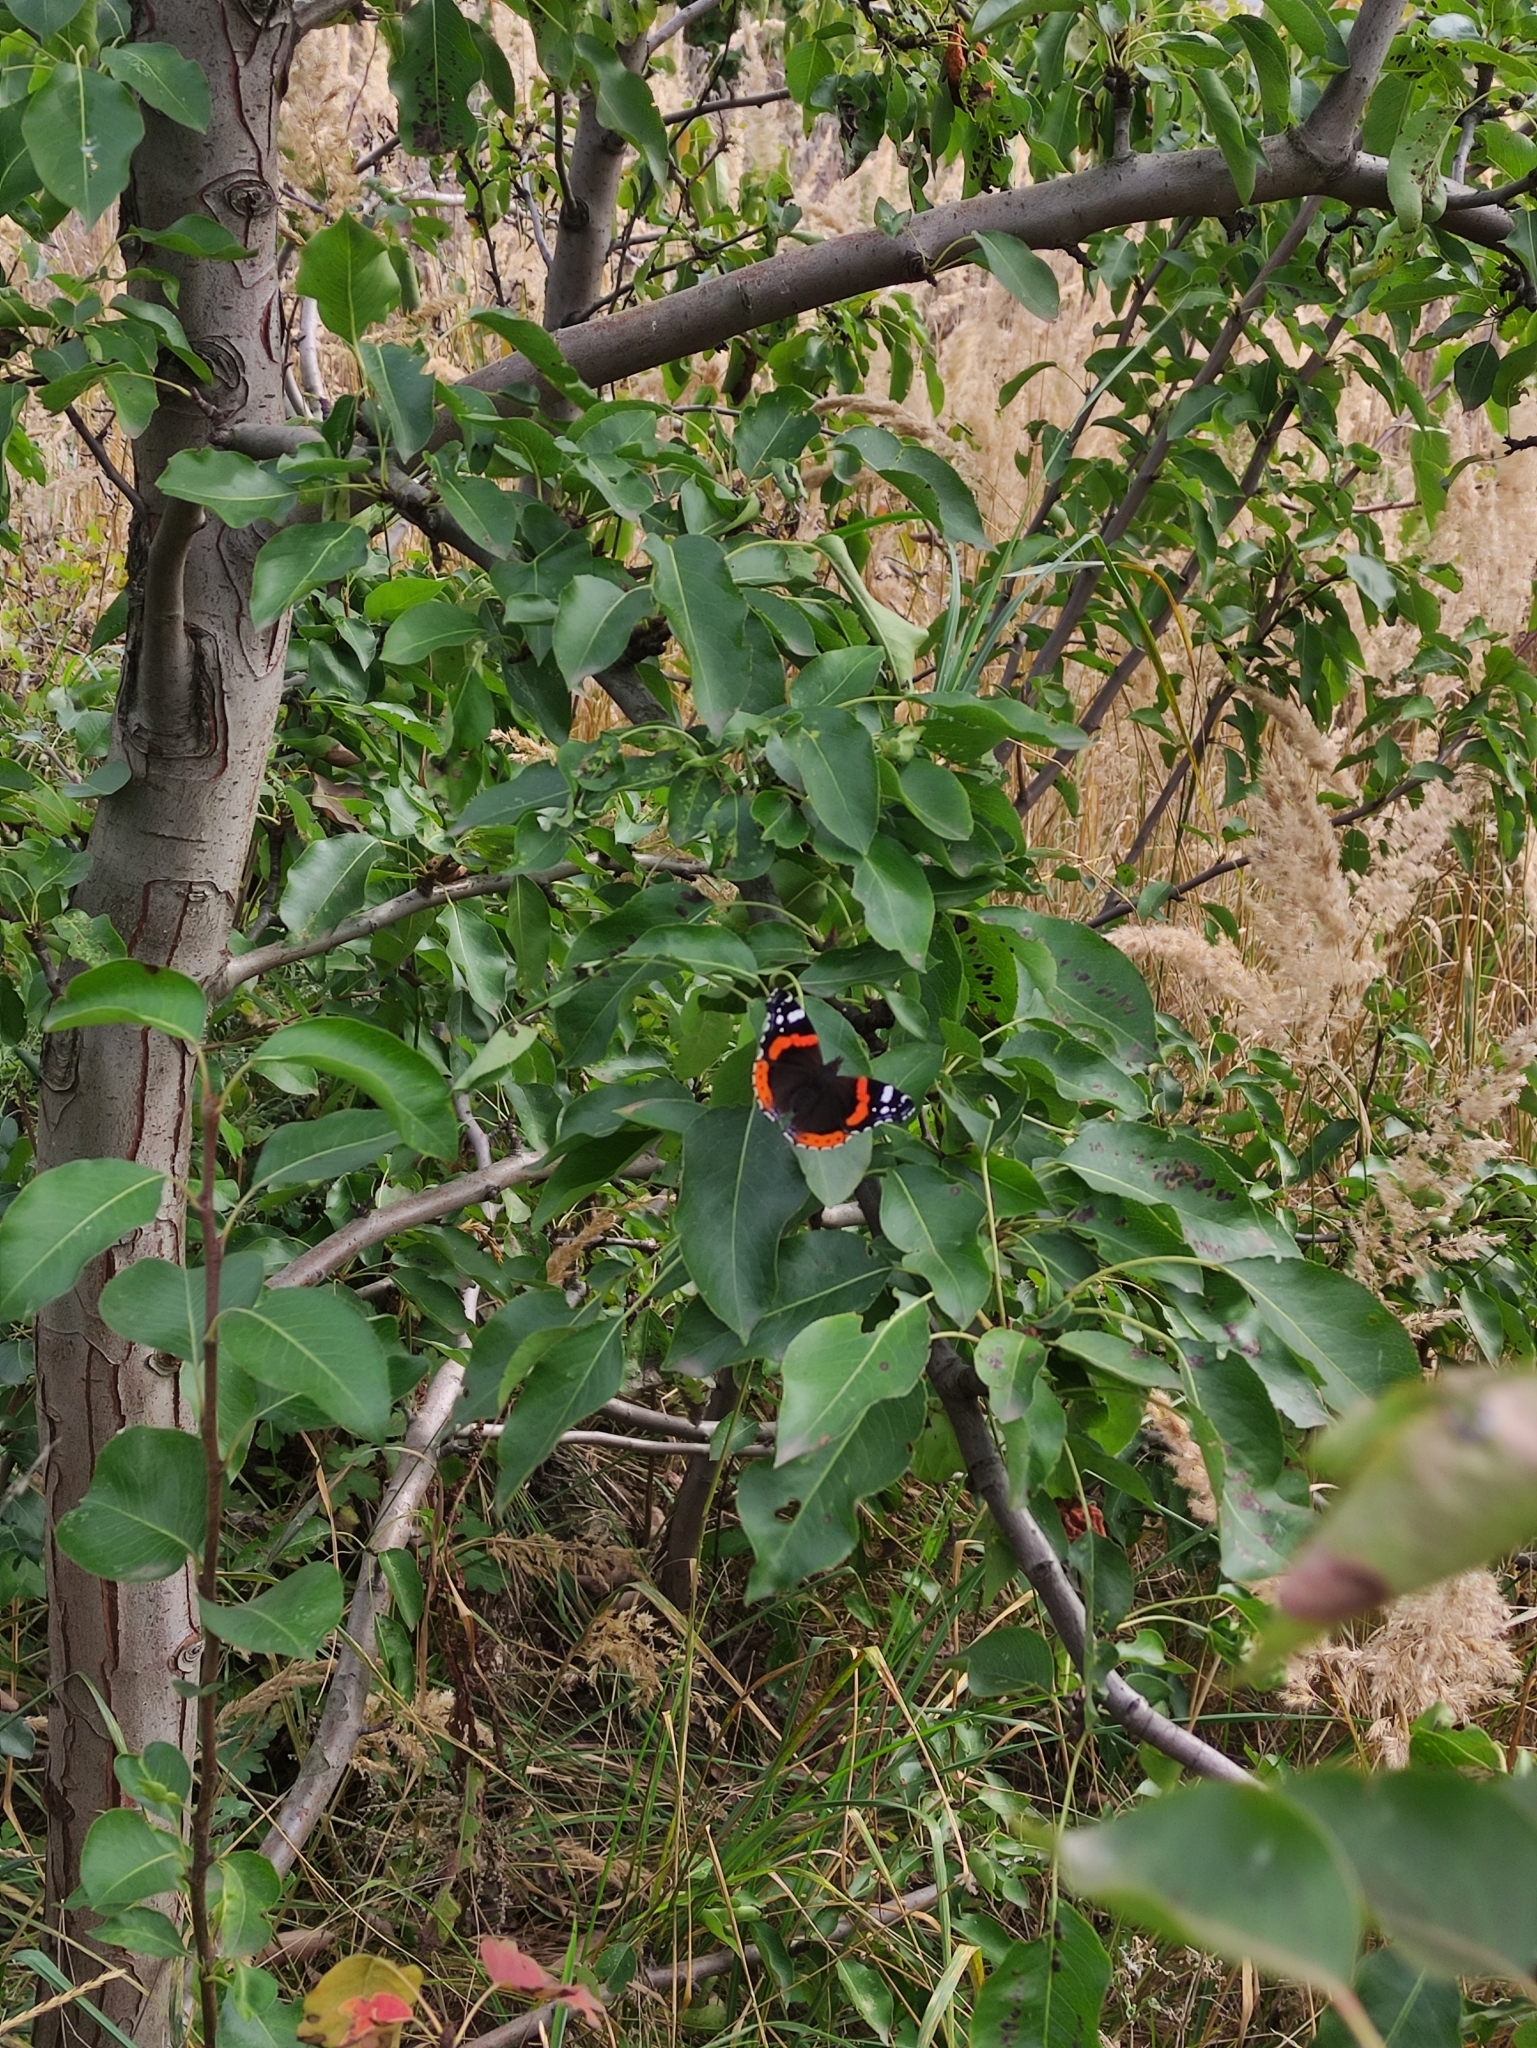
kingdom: Animalia
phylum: Arthropoda
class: Insecta
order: Lepidoptera
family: Nymphalidae
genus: Vanessa
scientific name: Vanessa atalanta
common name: Red admiral
